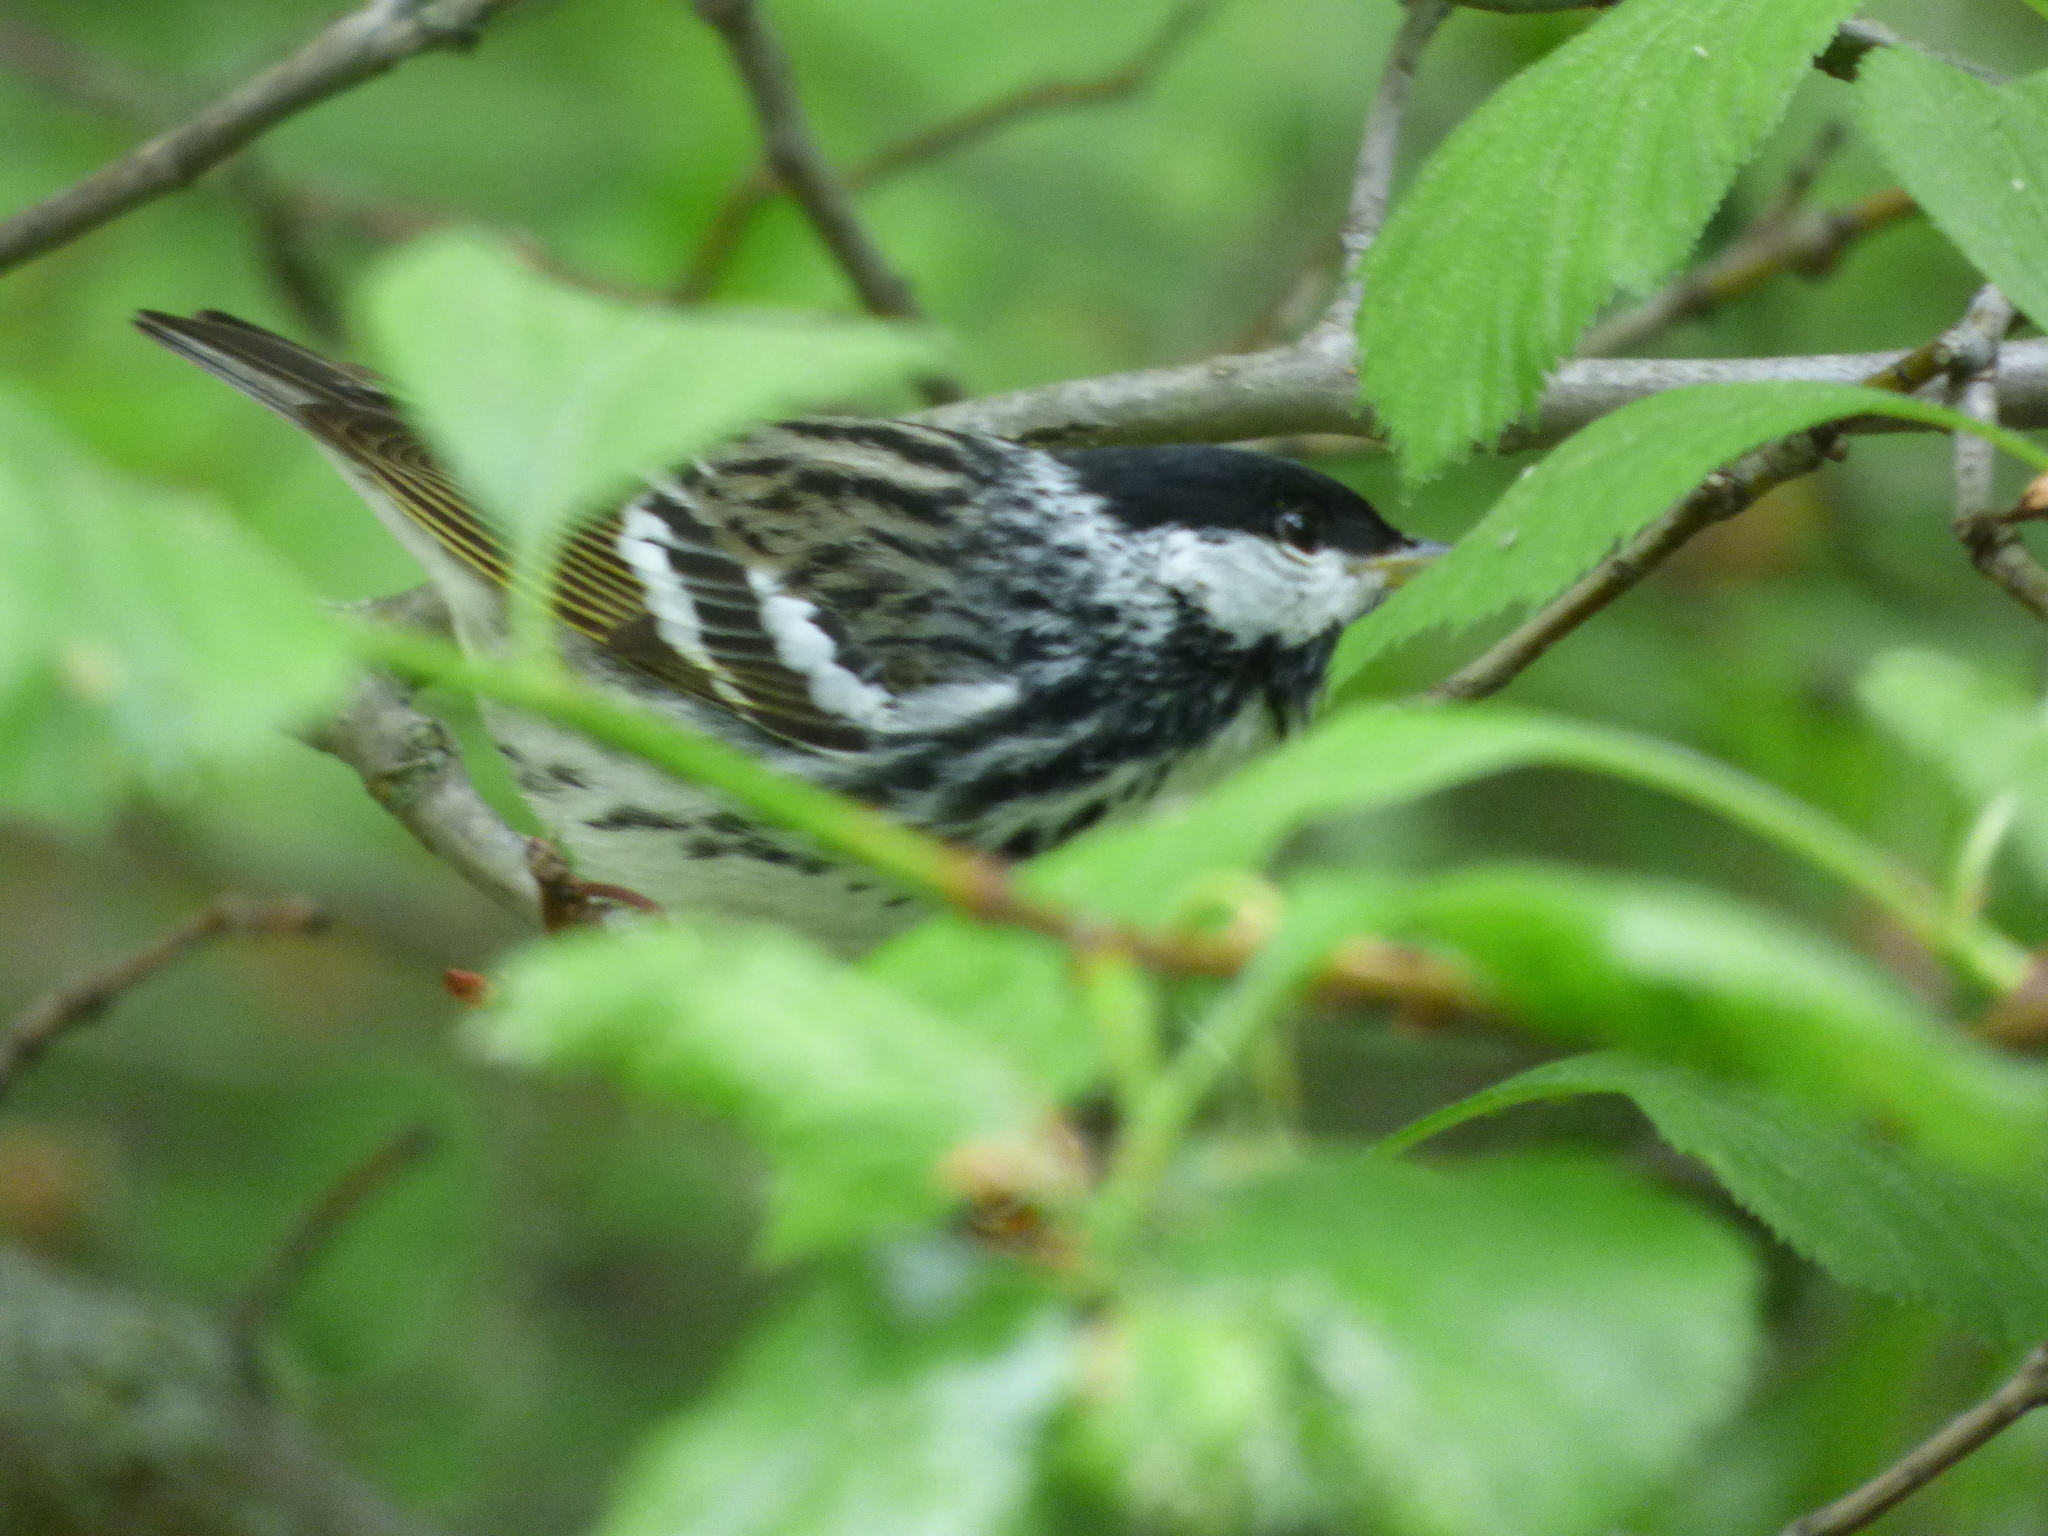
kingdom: Animalia
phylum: Chordata
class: Aves
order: Passeriformes
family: Parulidae
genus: Setophaga
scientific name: Setophaga striata
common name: Blackpoll warbler
